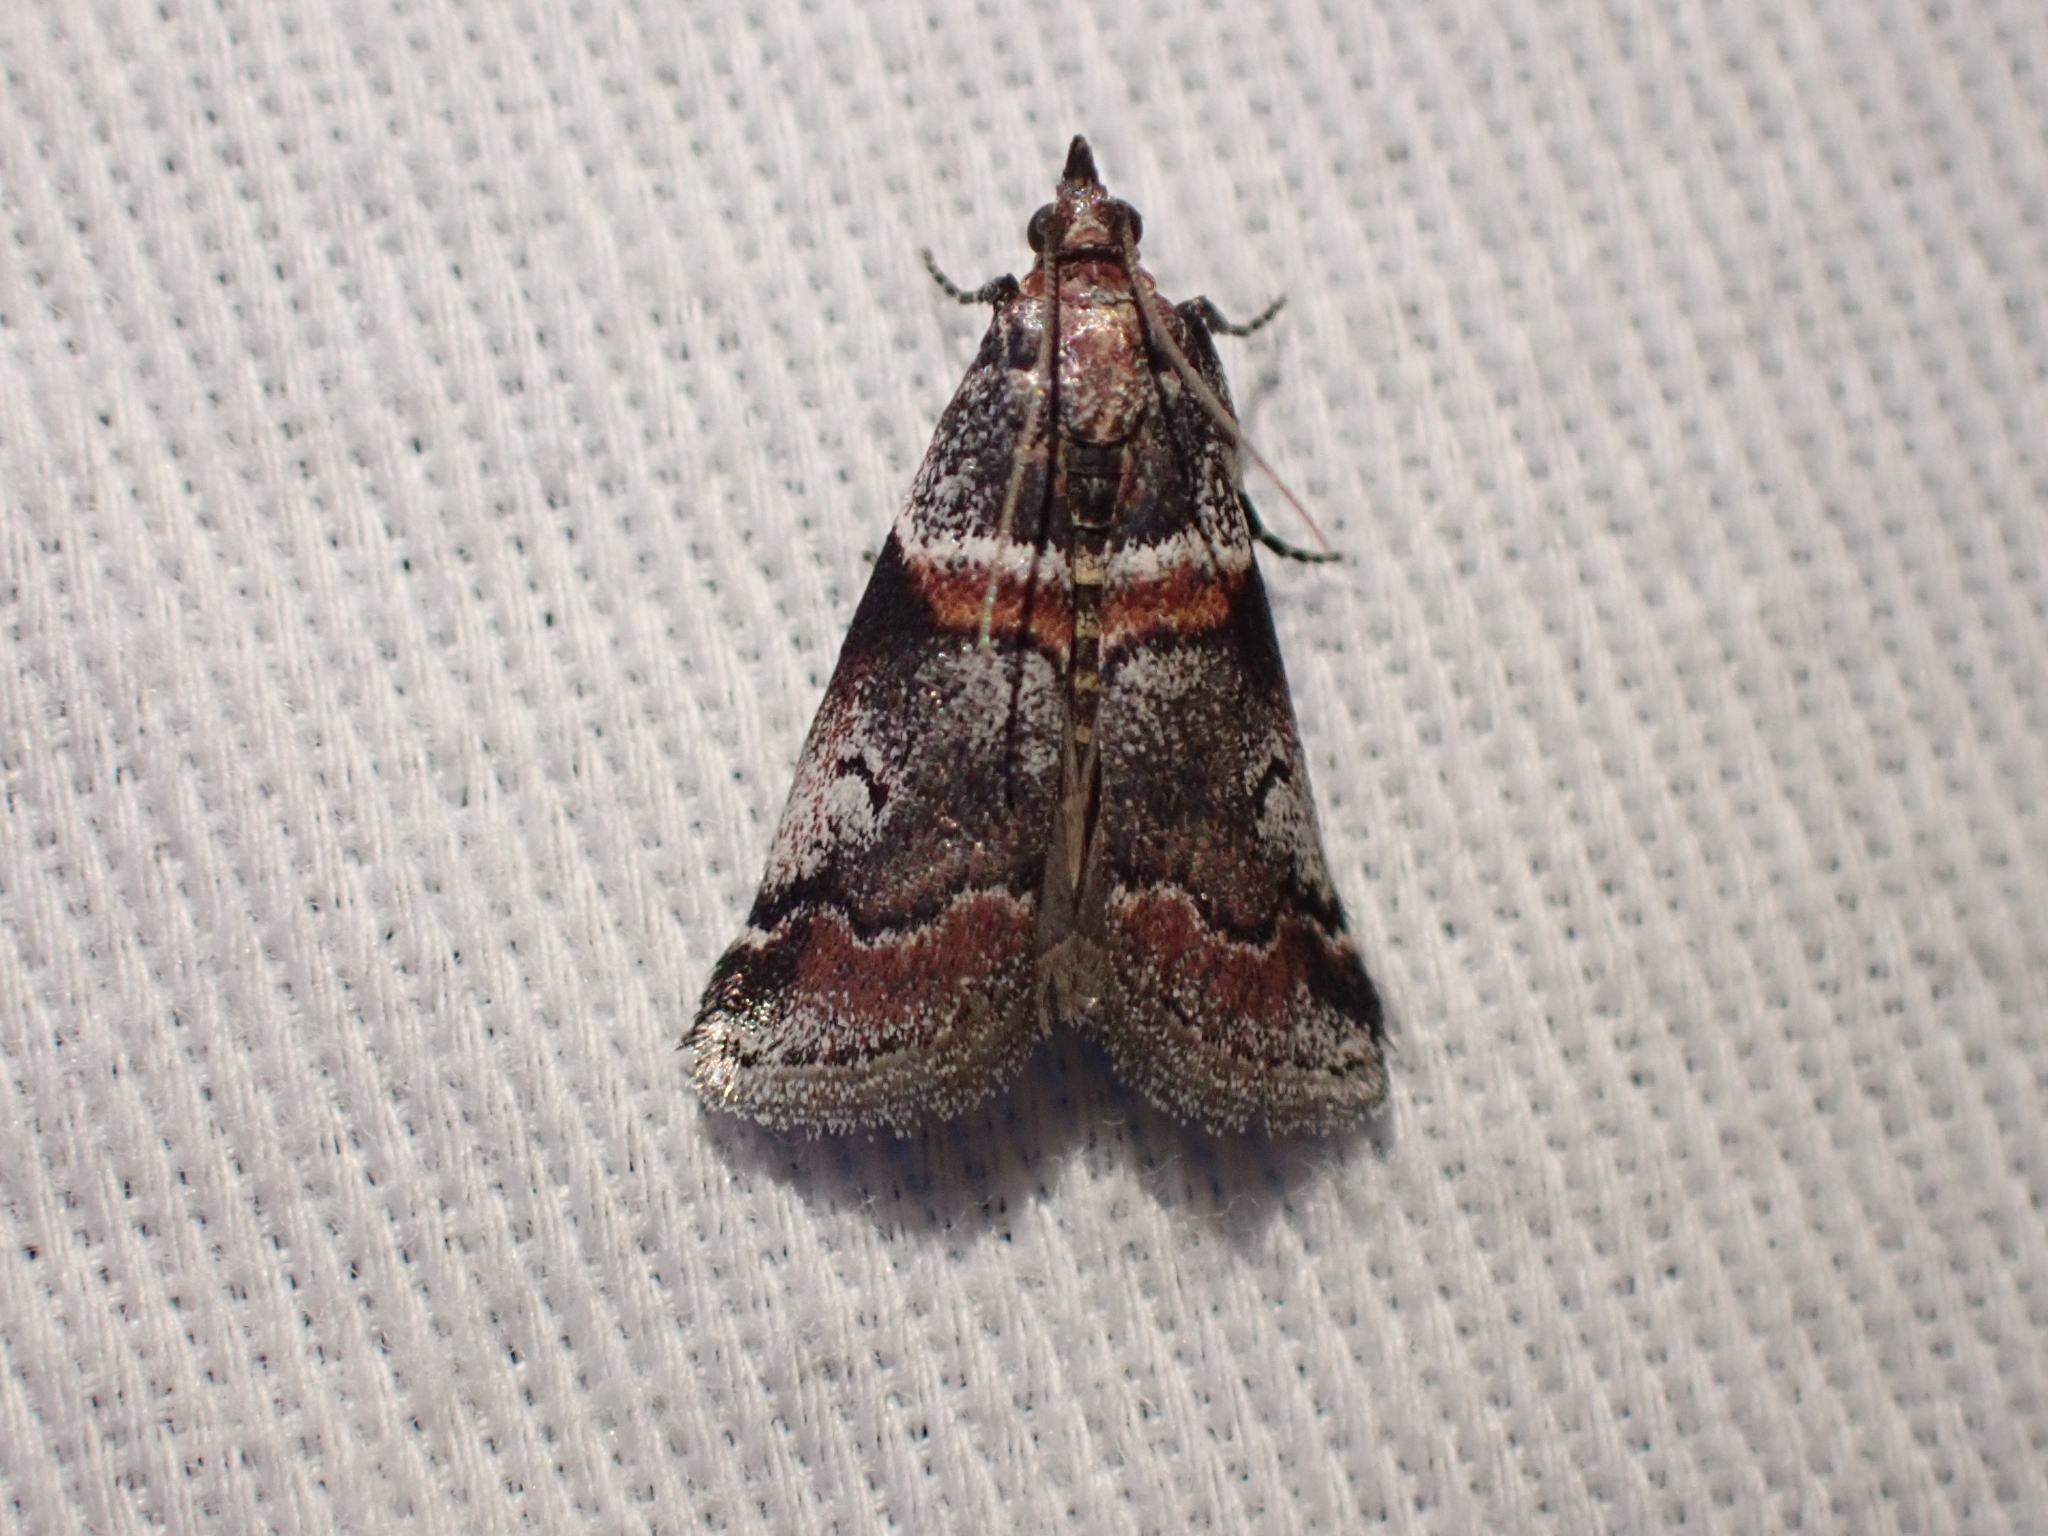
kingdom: Animalia
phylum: Arthropoda
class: Insecta
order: Lepidoptera
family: Pyralidae
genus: Acrobasis
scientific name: Acrobasis tricolorella
